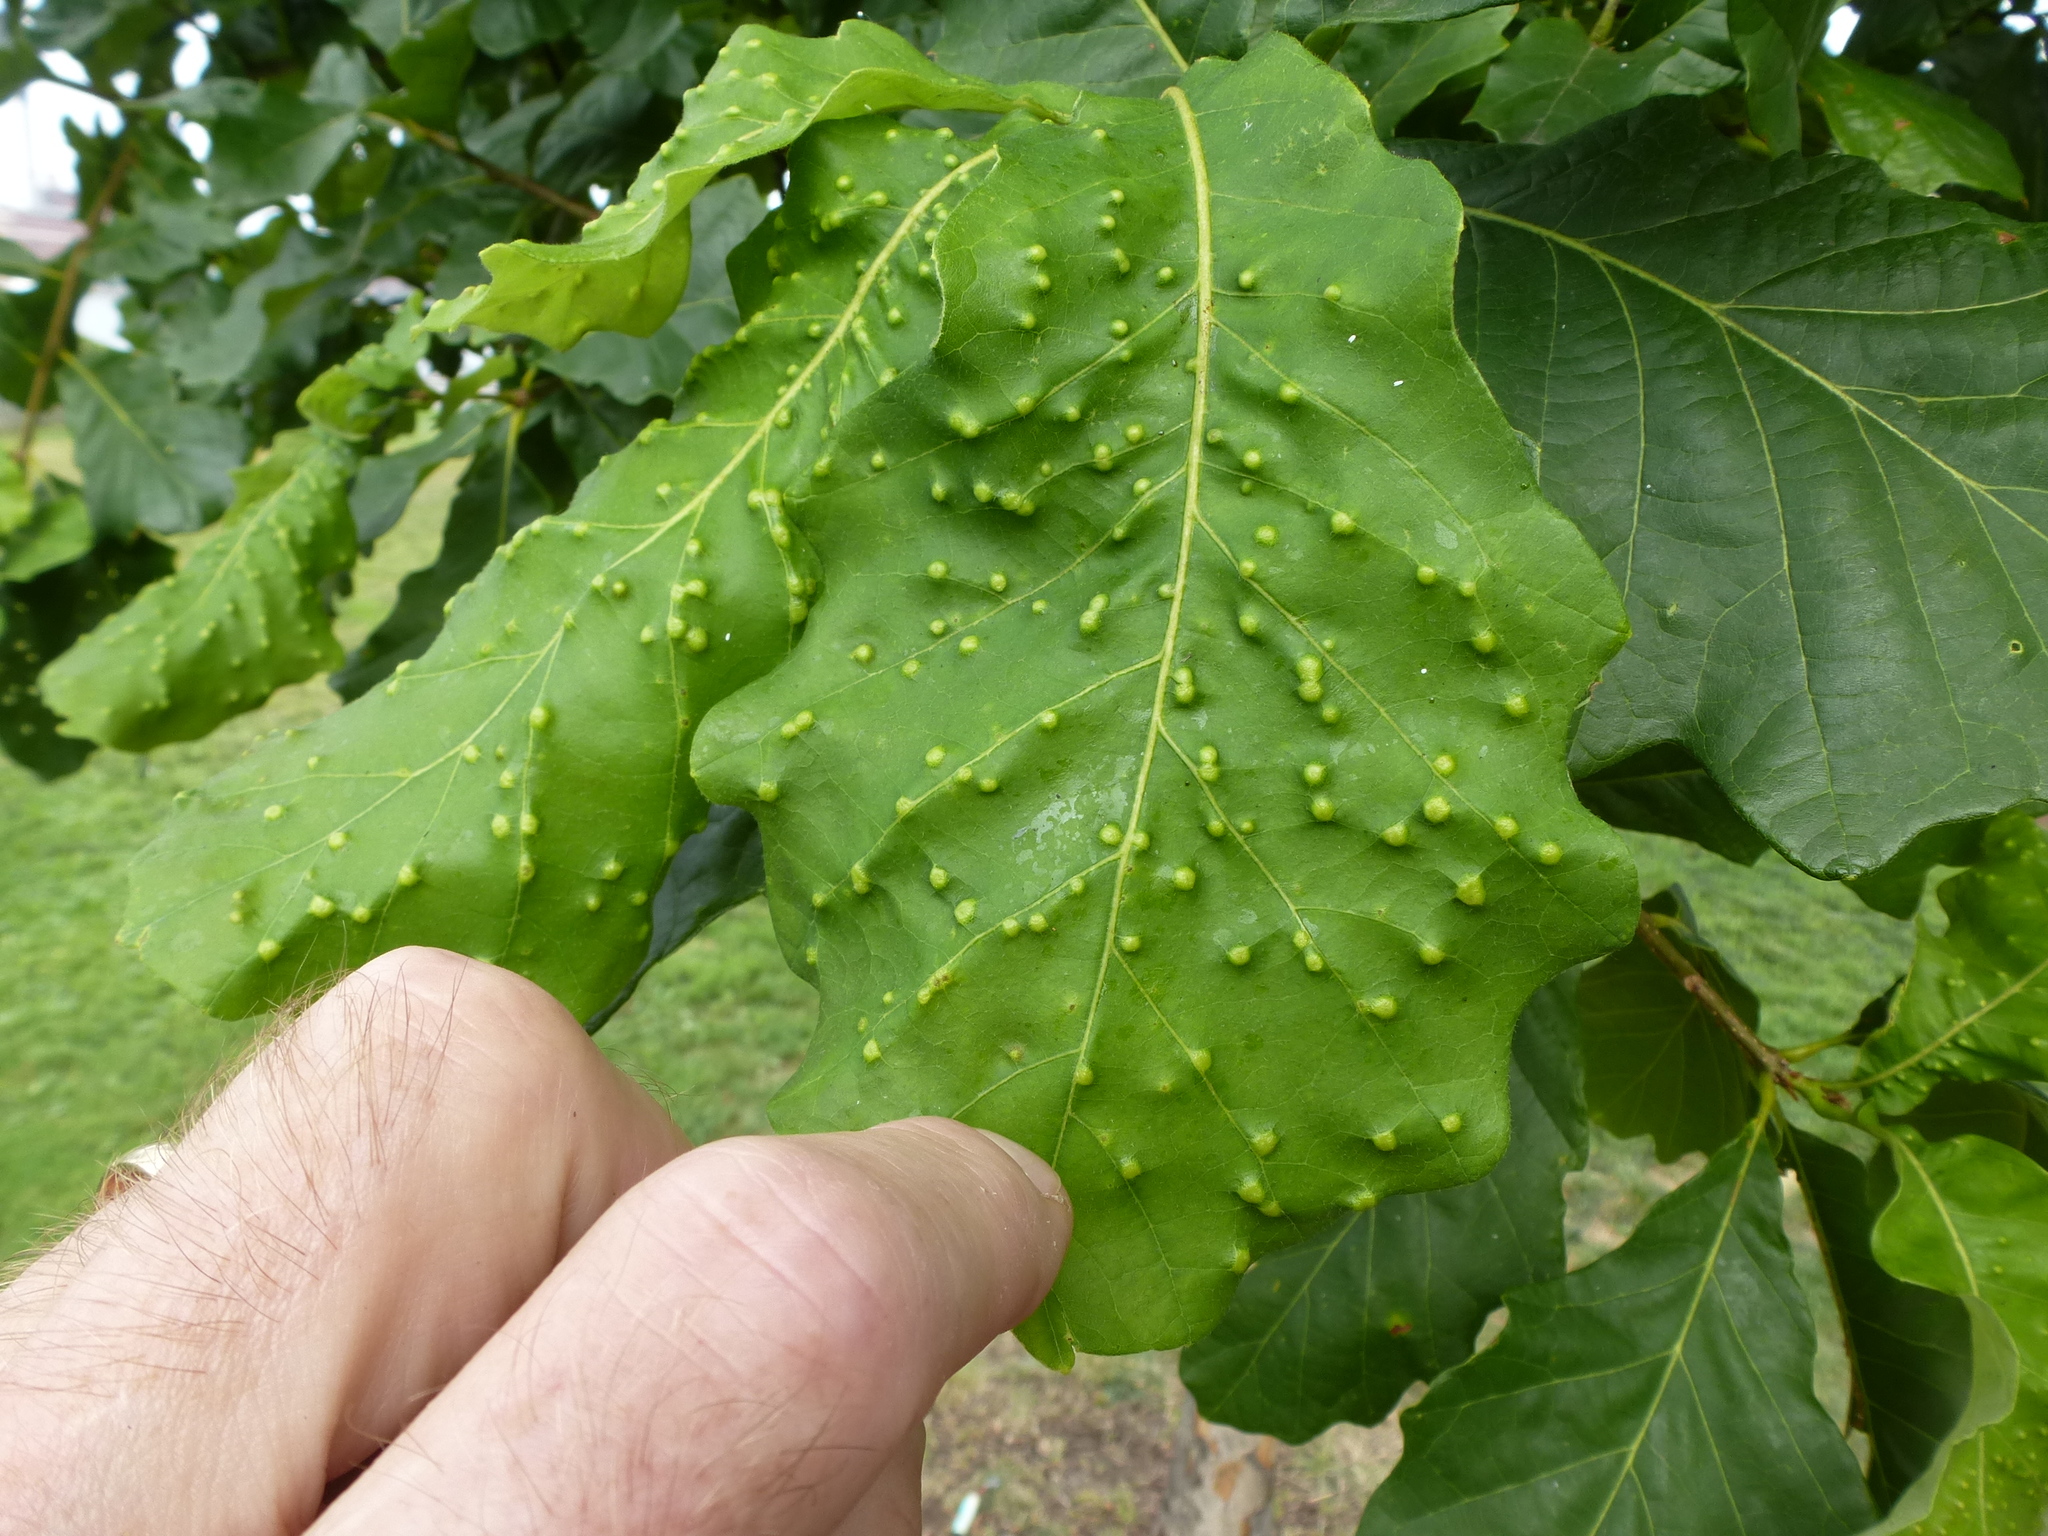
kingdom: Animalia
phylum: Arthropoda
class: Insecta
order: Hymenoptera
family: Cynipidae
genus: Neuroterus
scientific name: Neuroterus quercusverrucarum
